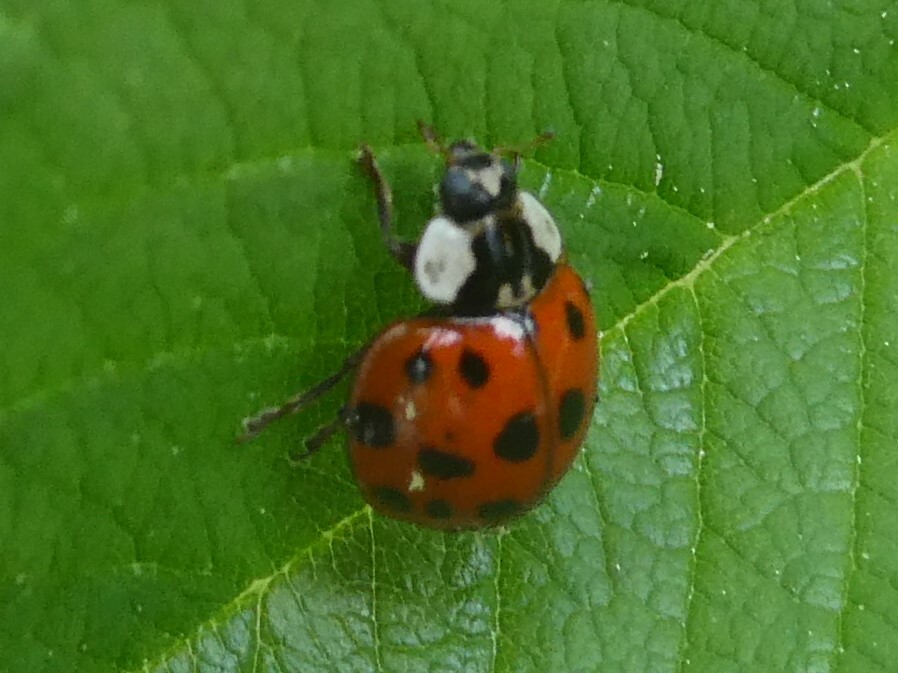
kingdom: Animalia
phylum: Arthropoda
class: Insecta
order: Coleoptera
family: Coccinellidae
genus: Harmonia
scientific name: Harmonia axyridis
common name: Harlequin ladybird
